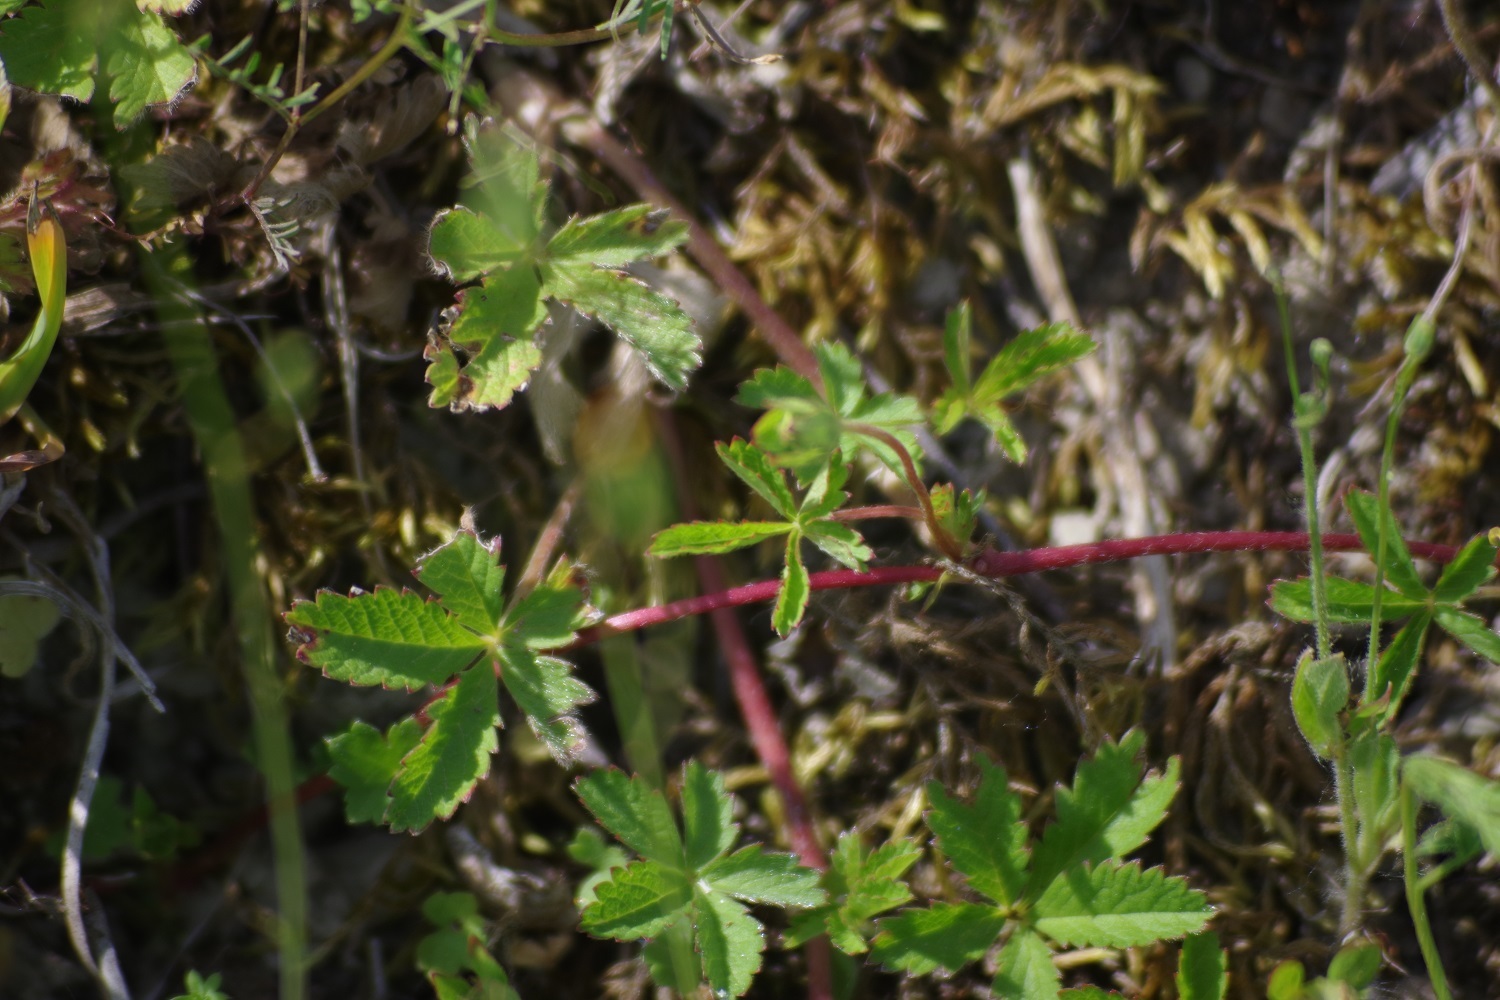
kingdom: Plantae
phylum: Tracheophyta
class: Magnoliopsida
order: Rosales
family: Rosaceae
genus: Potentilla
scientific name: Potentilla reptans
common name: Creeping cinquefoil
